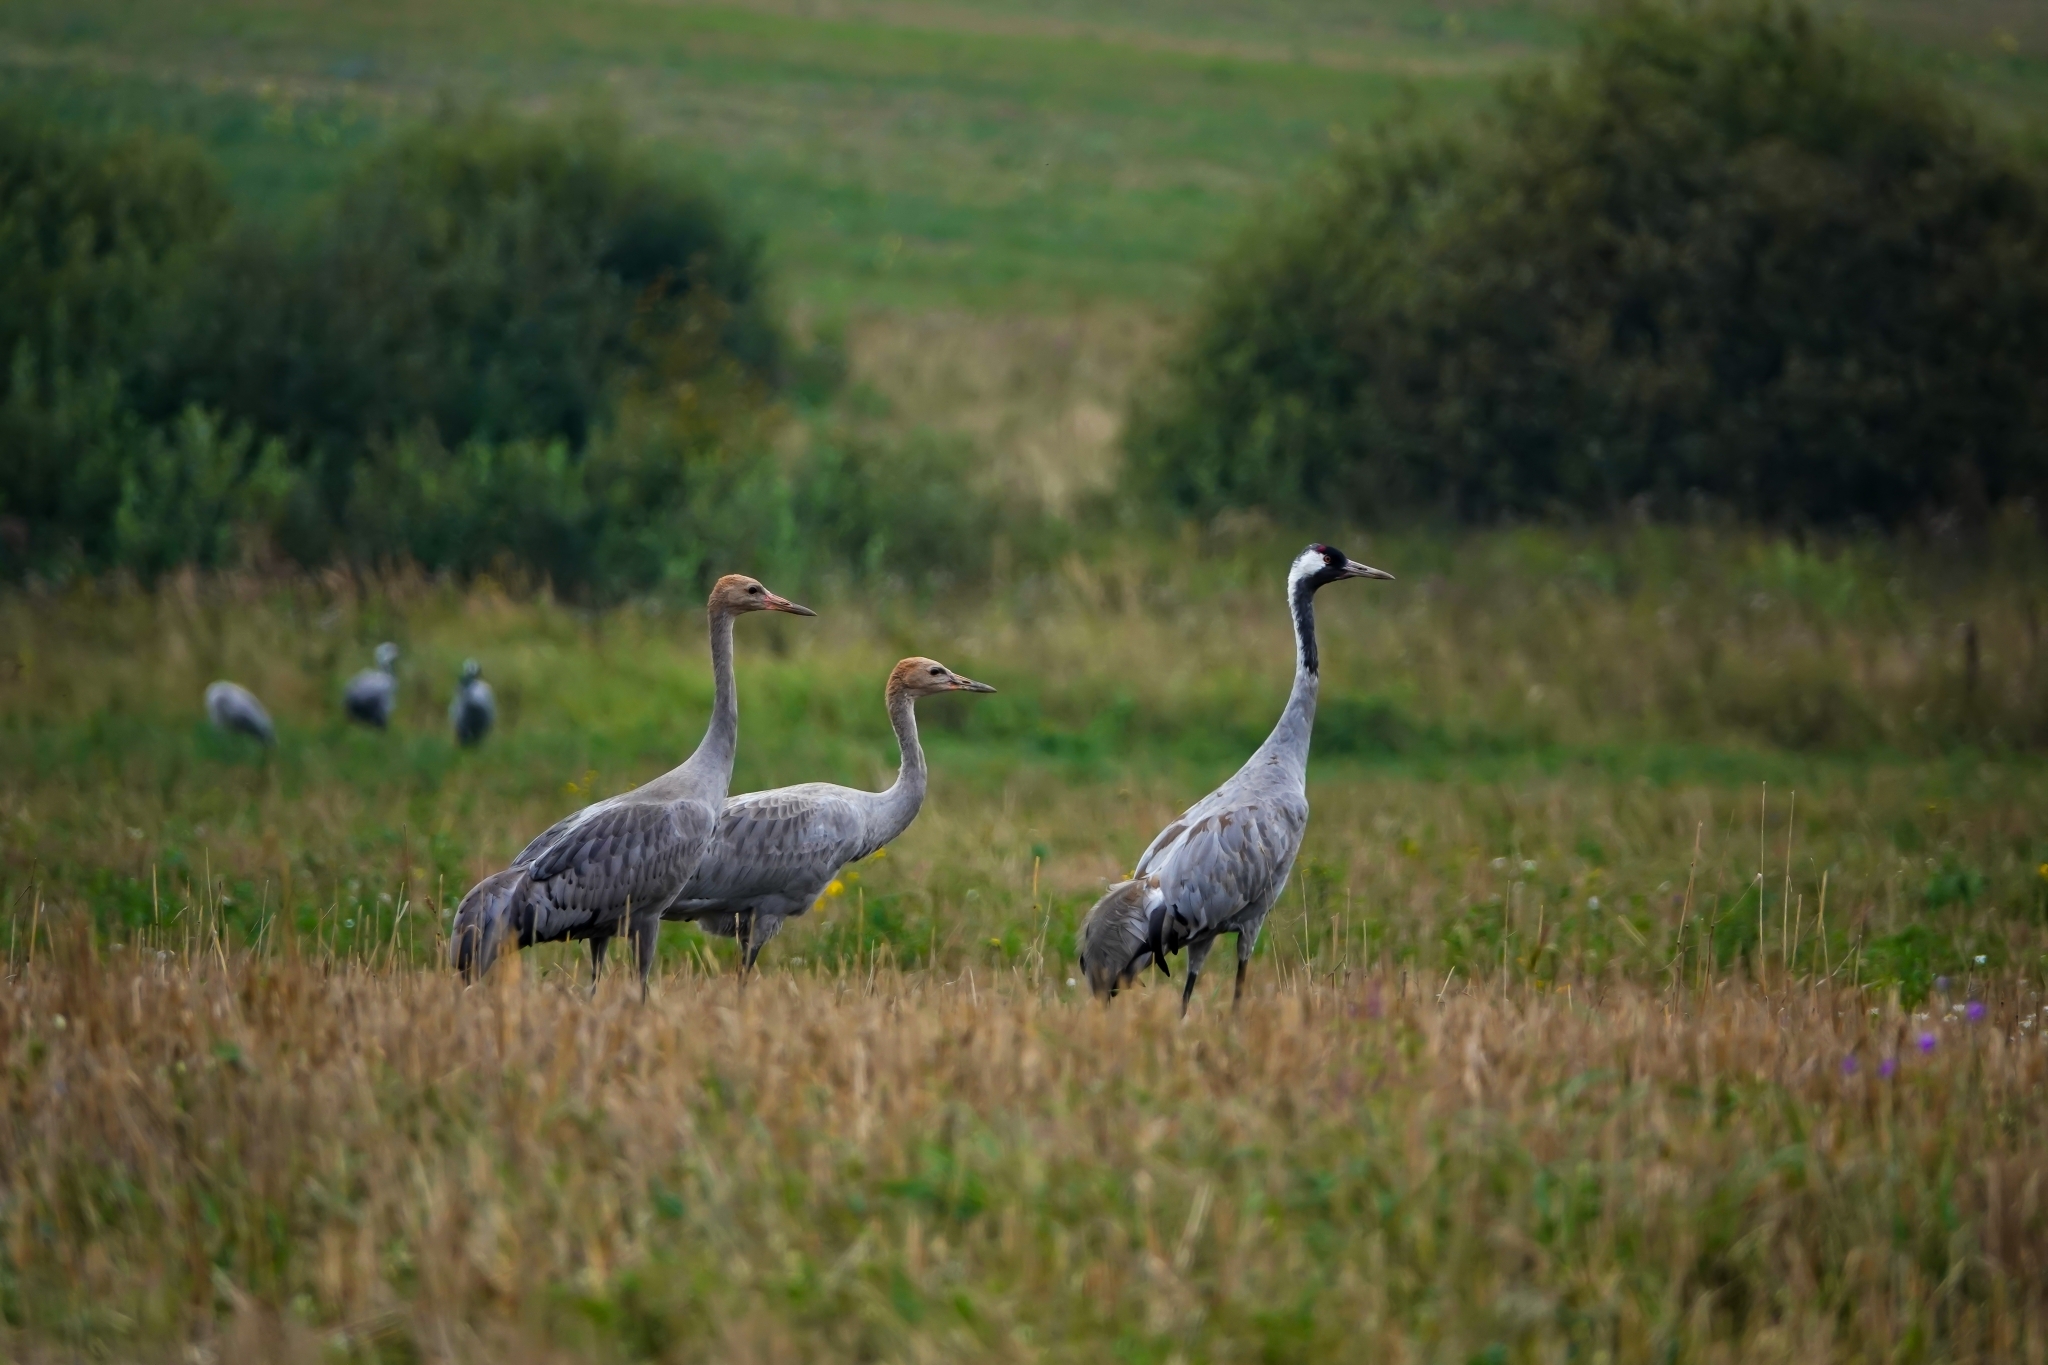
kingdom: Animalia
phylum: Chordata
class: Aves
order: Gruiformes
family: Gruidae
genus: Grus
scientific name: Grus grus
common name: Common crane
